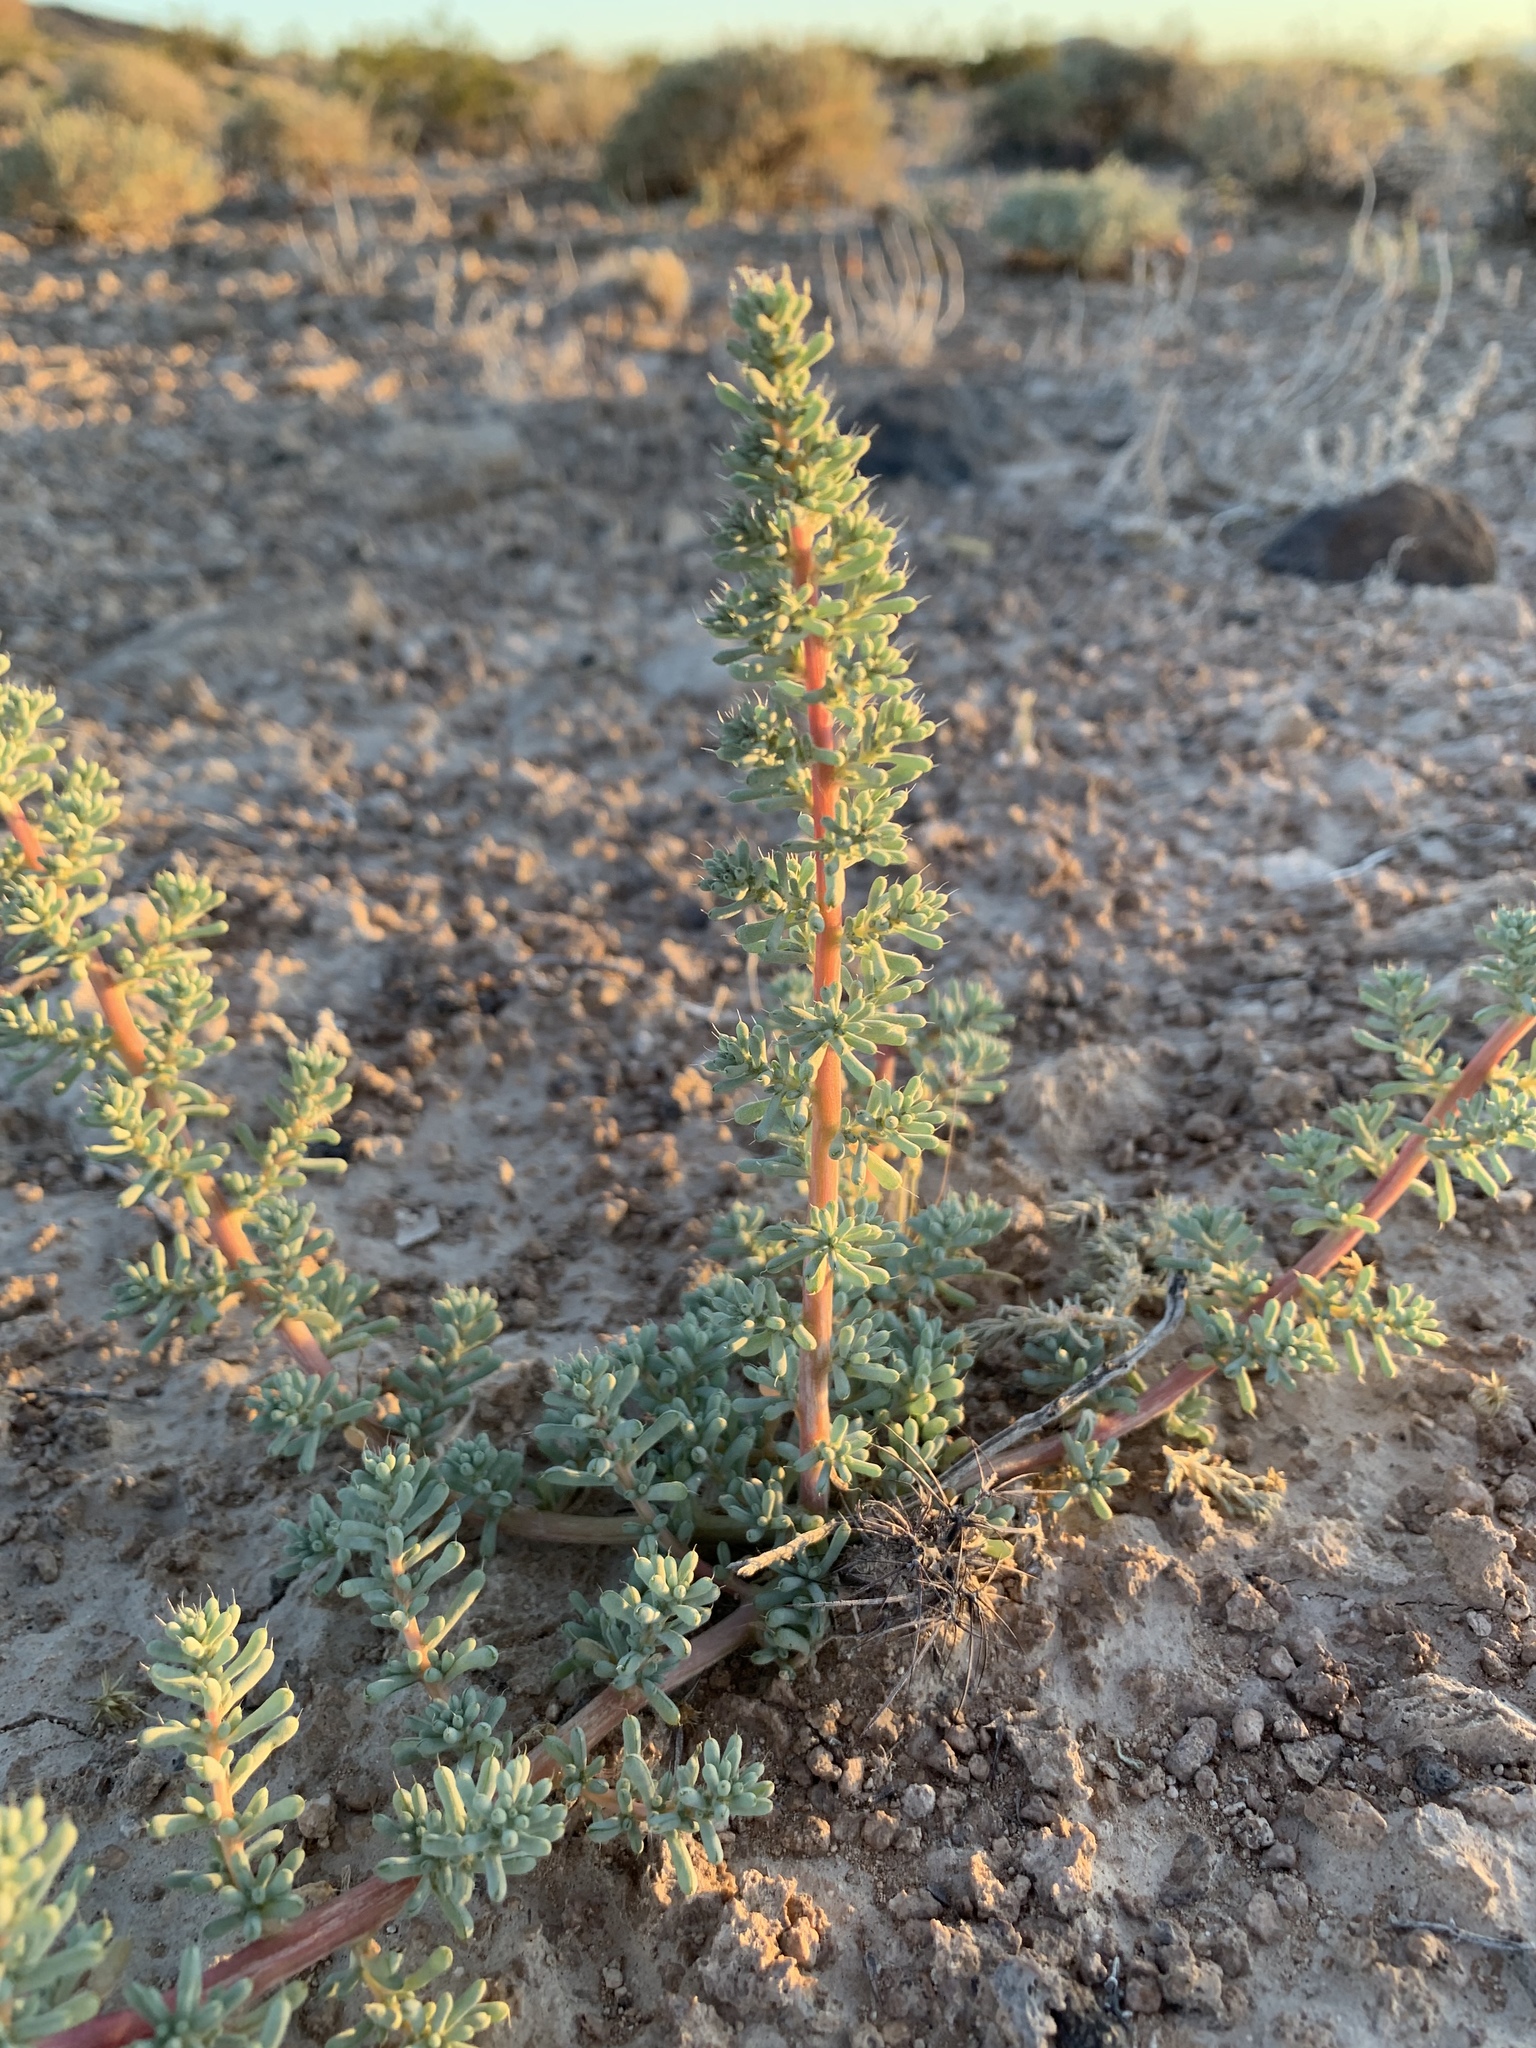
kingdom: Plantae
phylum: Tracheophyta
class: Magnoliopsida
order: Caryophyllales
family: Amaranthaceae
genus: Halogeton
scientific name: Halogeton glomeratus
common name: Saltlover
